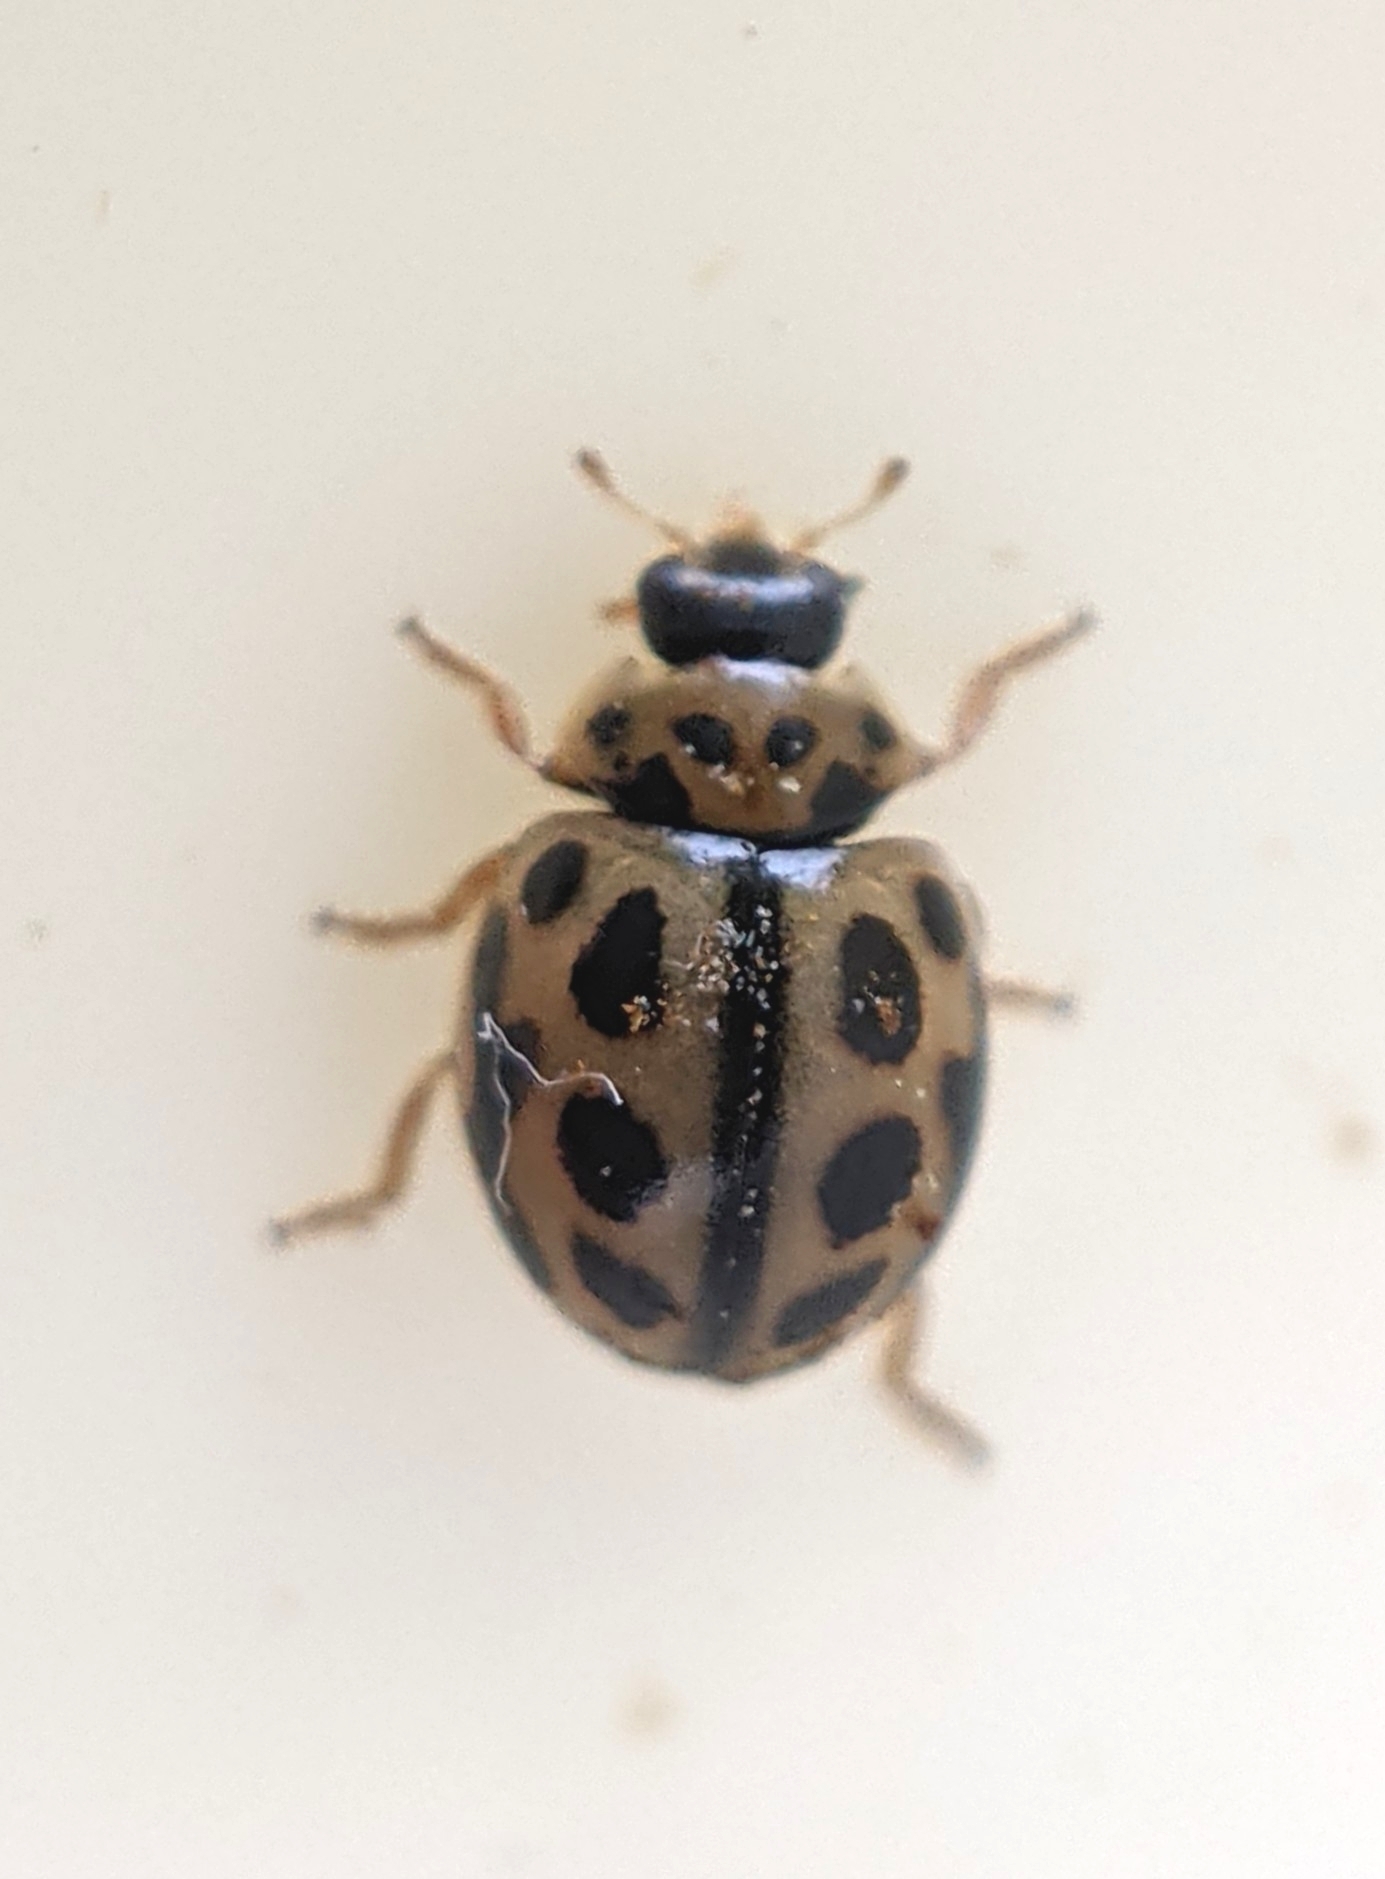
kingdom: Animalia
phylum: Arthropoda
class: Insecta
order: Coleoptera
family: Coccinellidae
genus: Tytthaspis
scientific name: Tytthaspis sedecimpunctata
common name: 16-spot ladybird
